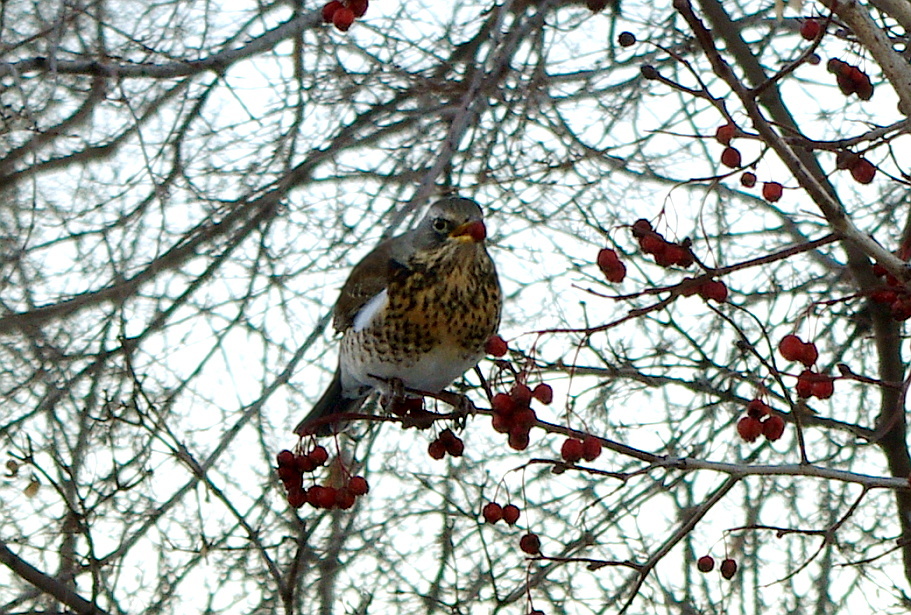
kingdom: Animalia
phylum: Chordata
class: Aves
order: Passeriformes
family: Turdidae
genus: Turdus
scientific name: Turdus pilaris
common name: Fieldfare
